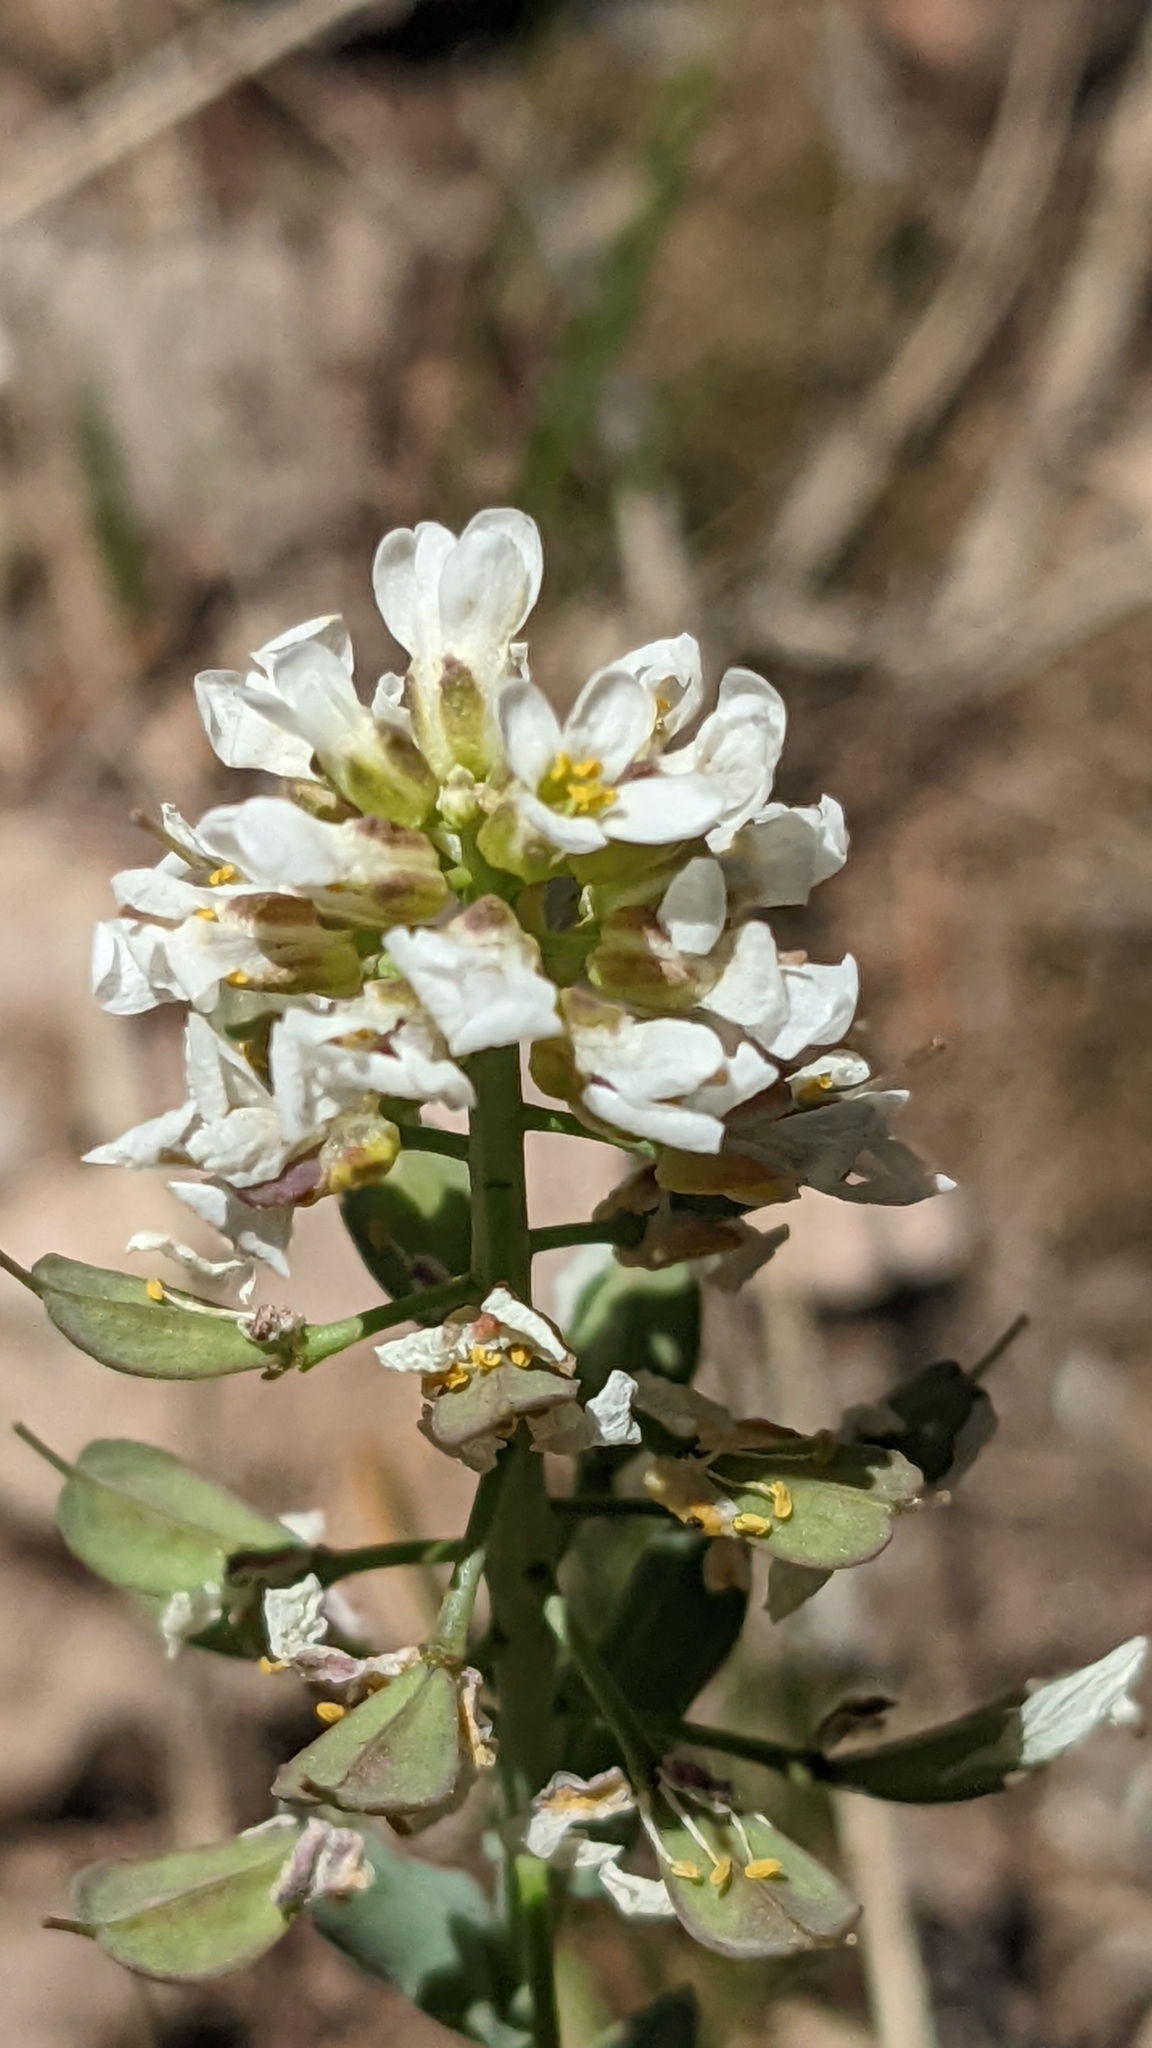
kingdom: Plantae
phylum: Tracheophyta
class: Magnoliopsida
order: Brassicales
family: Brassicaceae
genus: Noccaea
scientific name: Noccaea fendleri
